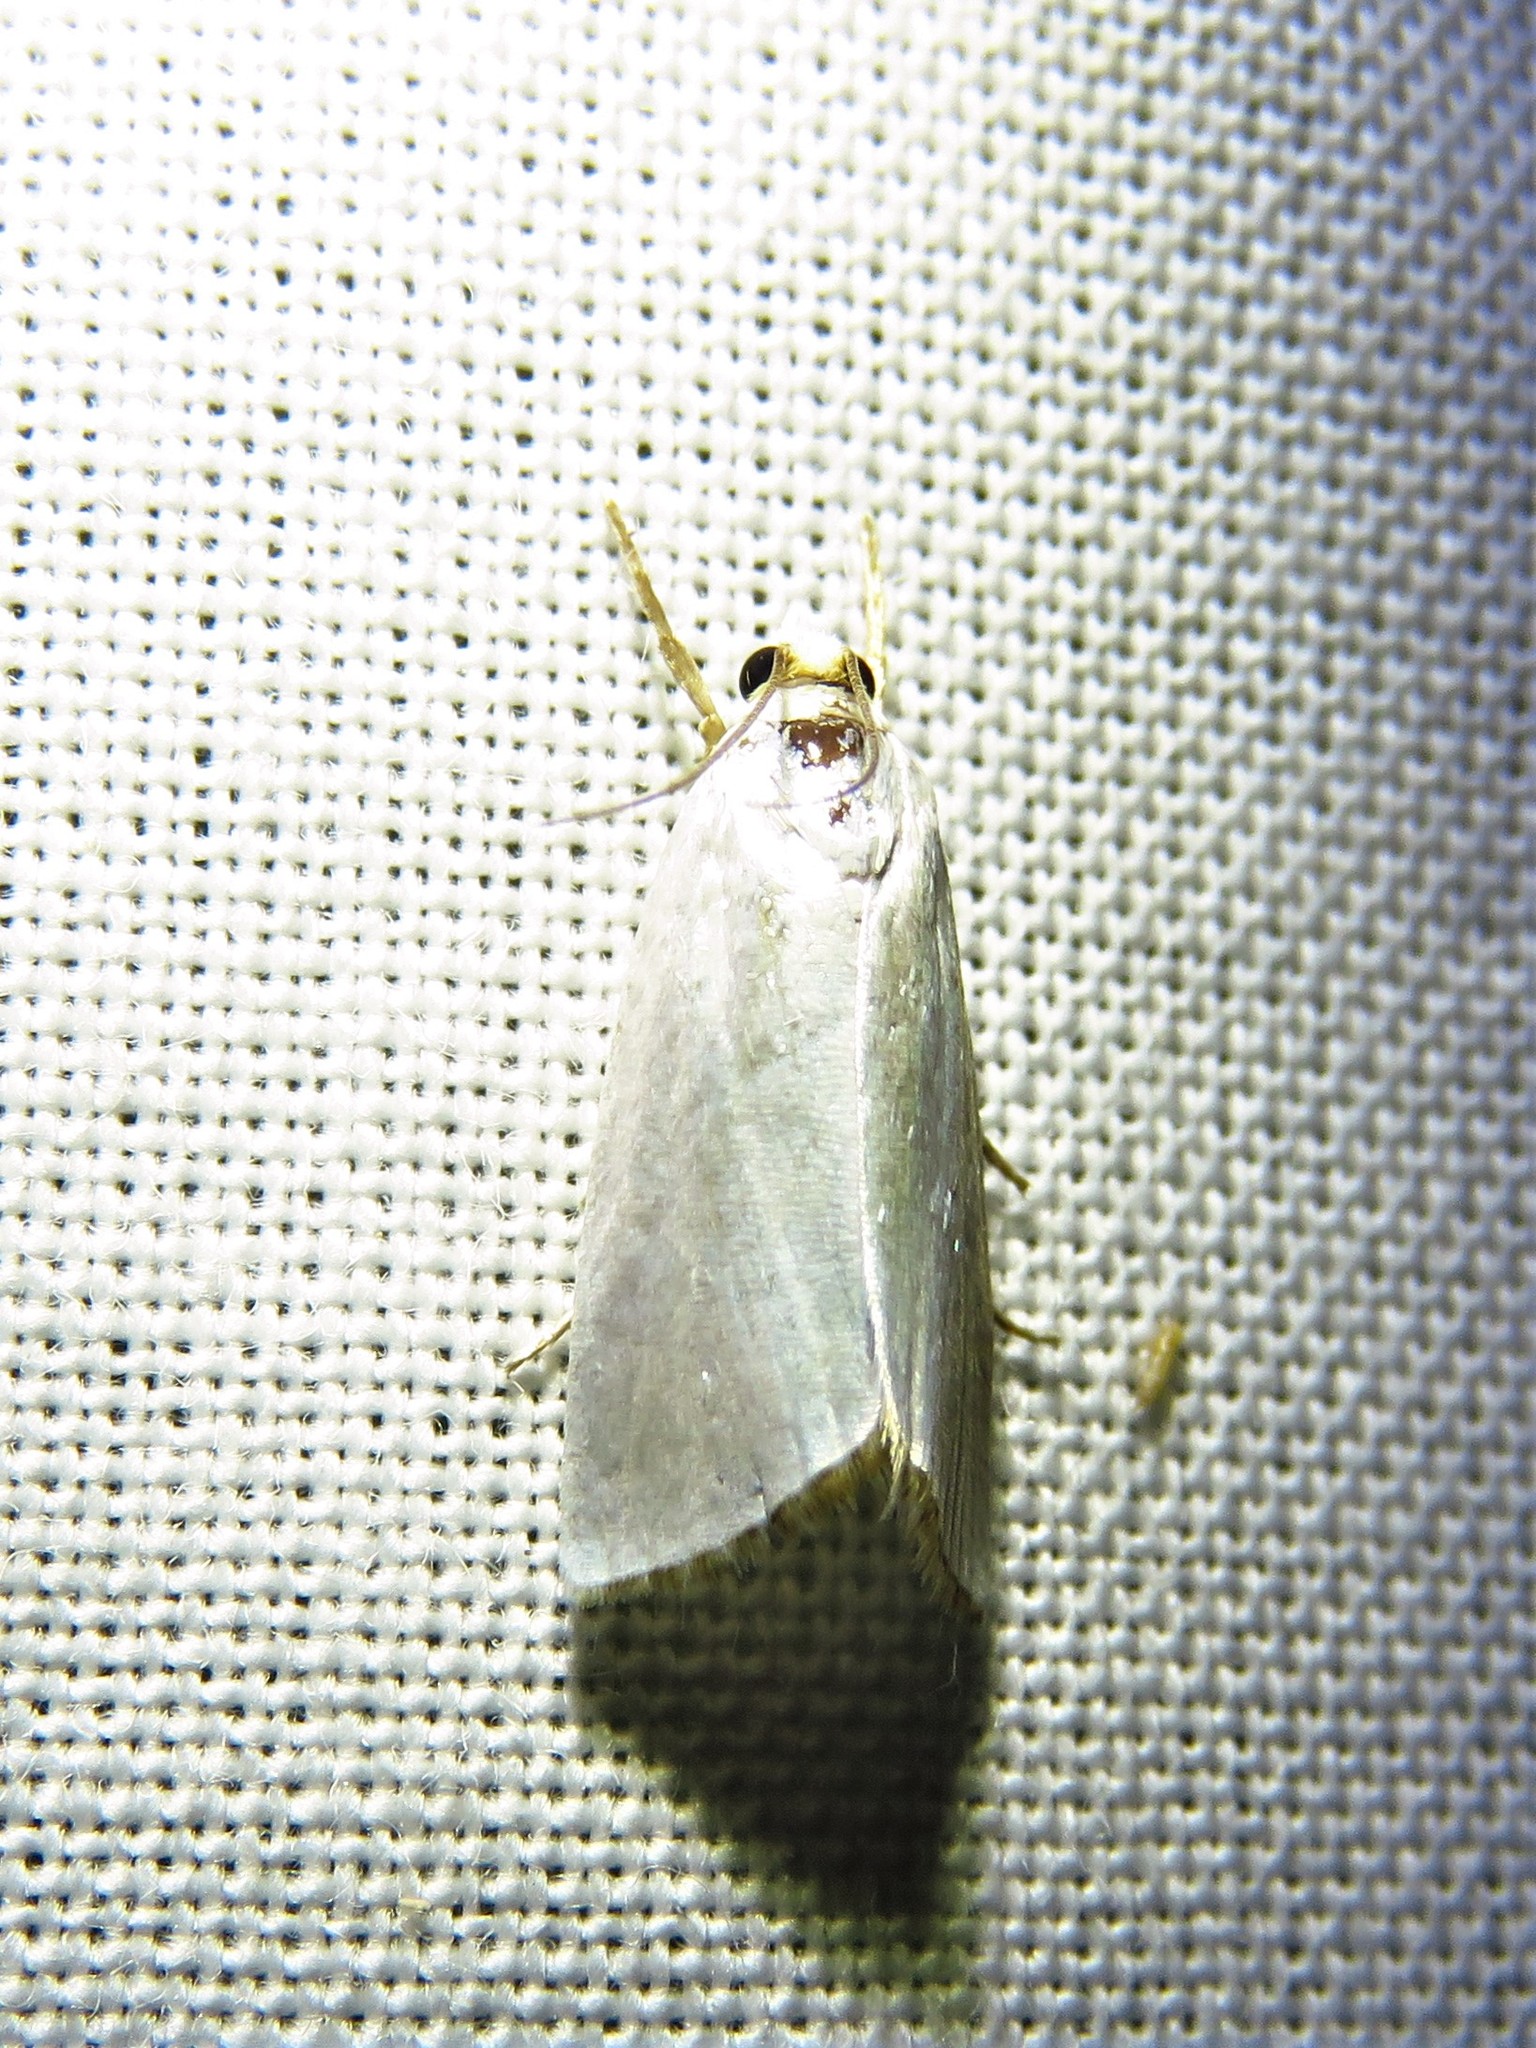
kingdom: Animalia
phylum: Arthropoda
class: Insecta
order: Lepidoptera
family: Crambidae
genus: Argyria
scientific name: Argyria nivalis
